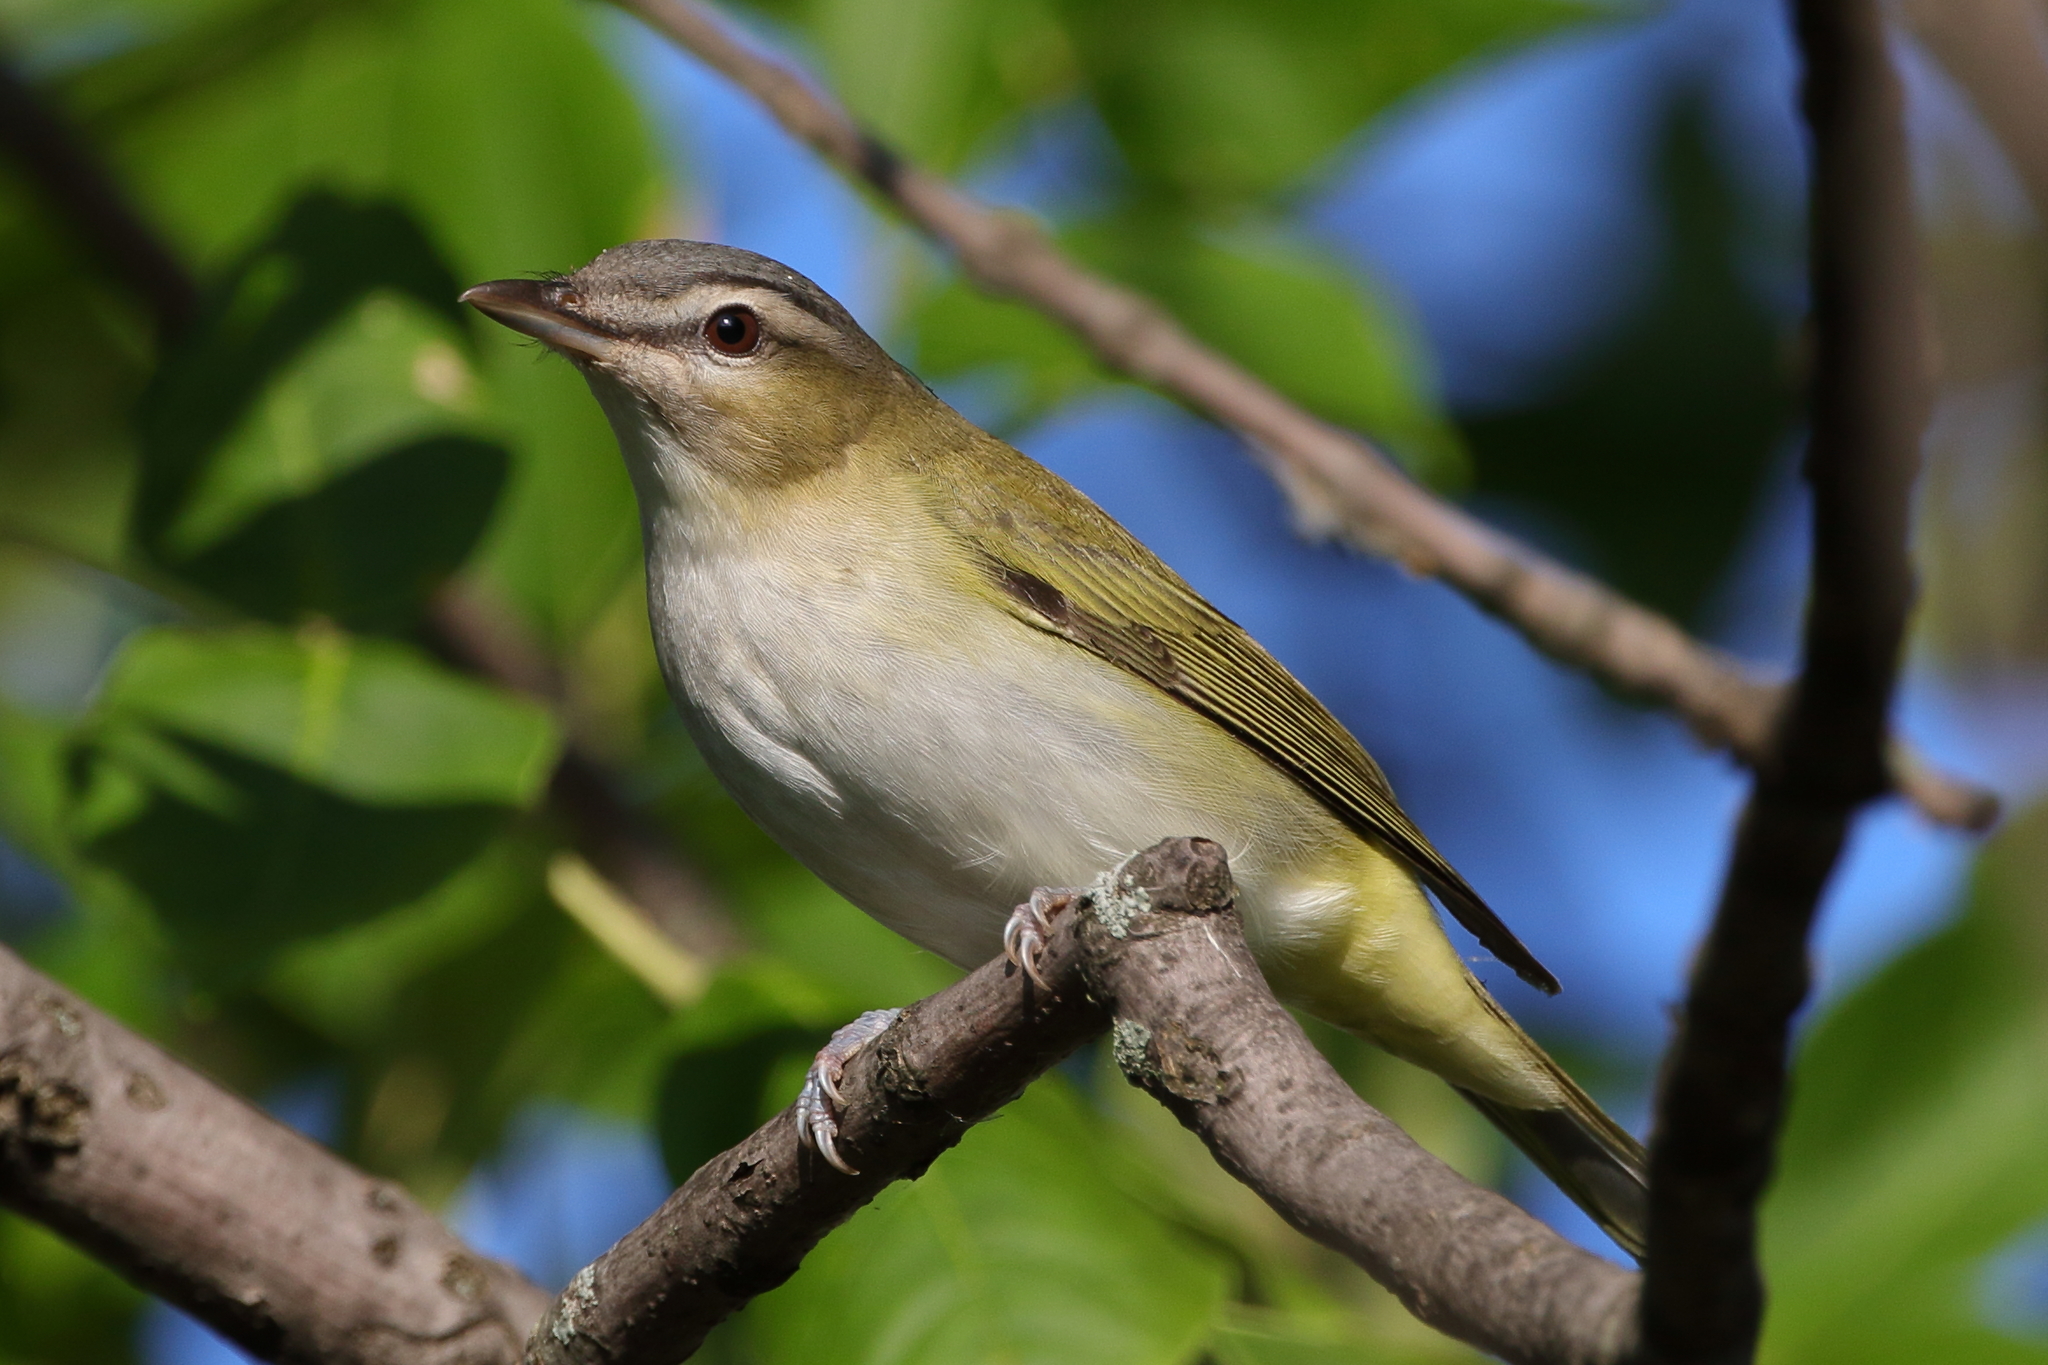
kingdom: Animalia
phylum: Chordata
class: Aves
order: Passeriformes
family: Vireonidae
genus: Vireo
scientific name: Vireo olivaceus
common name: Red-eyed vireo
